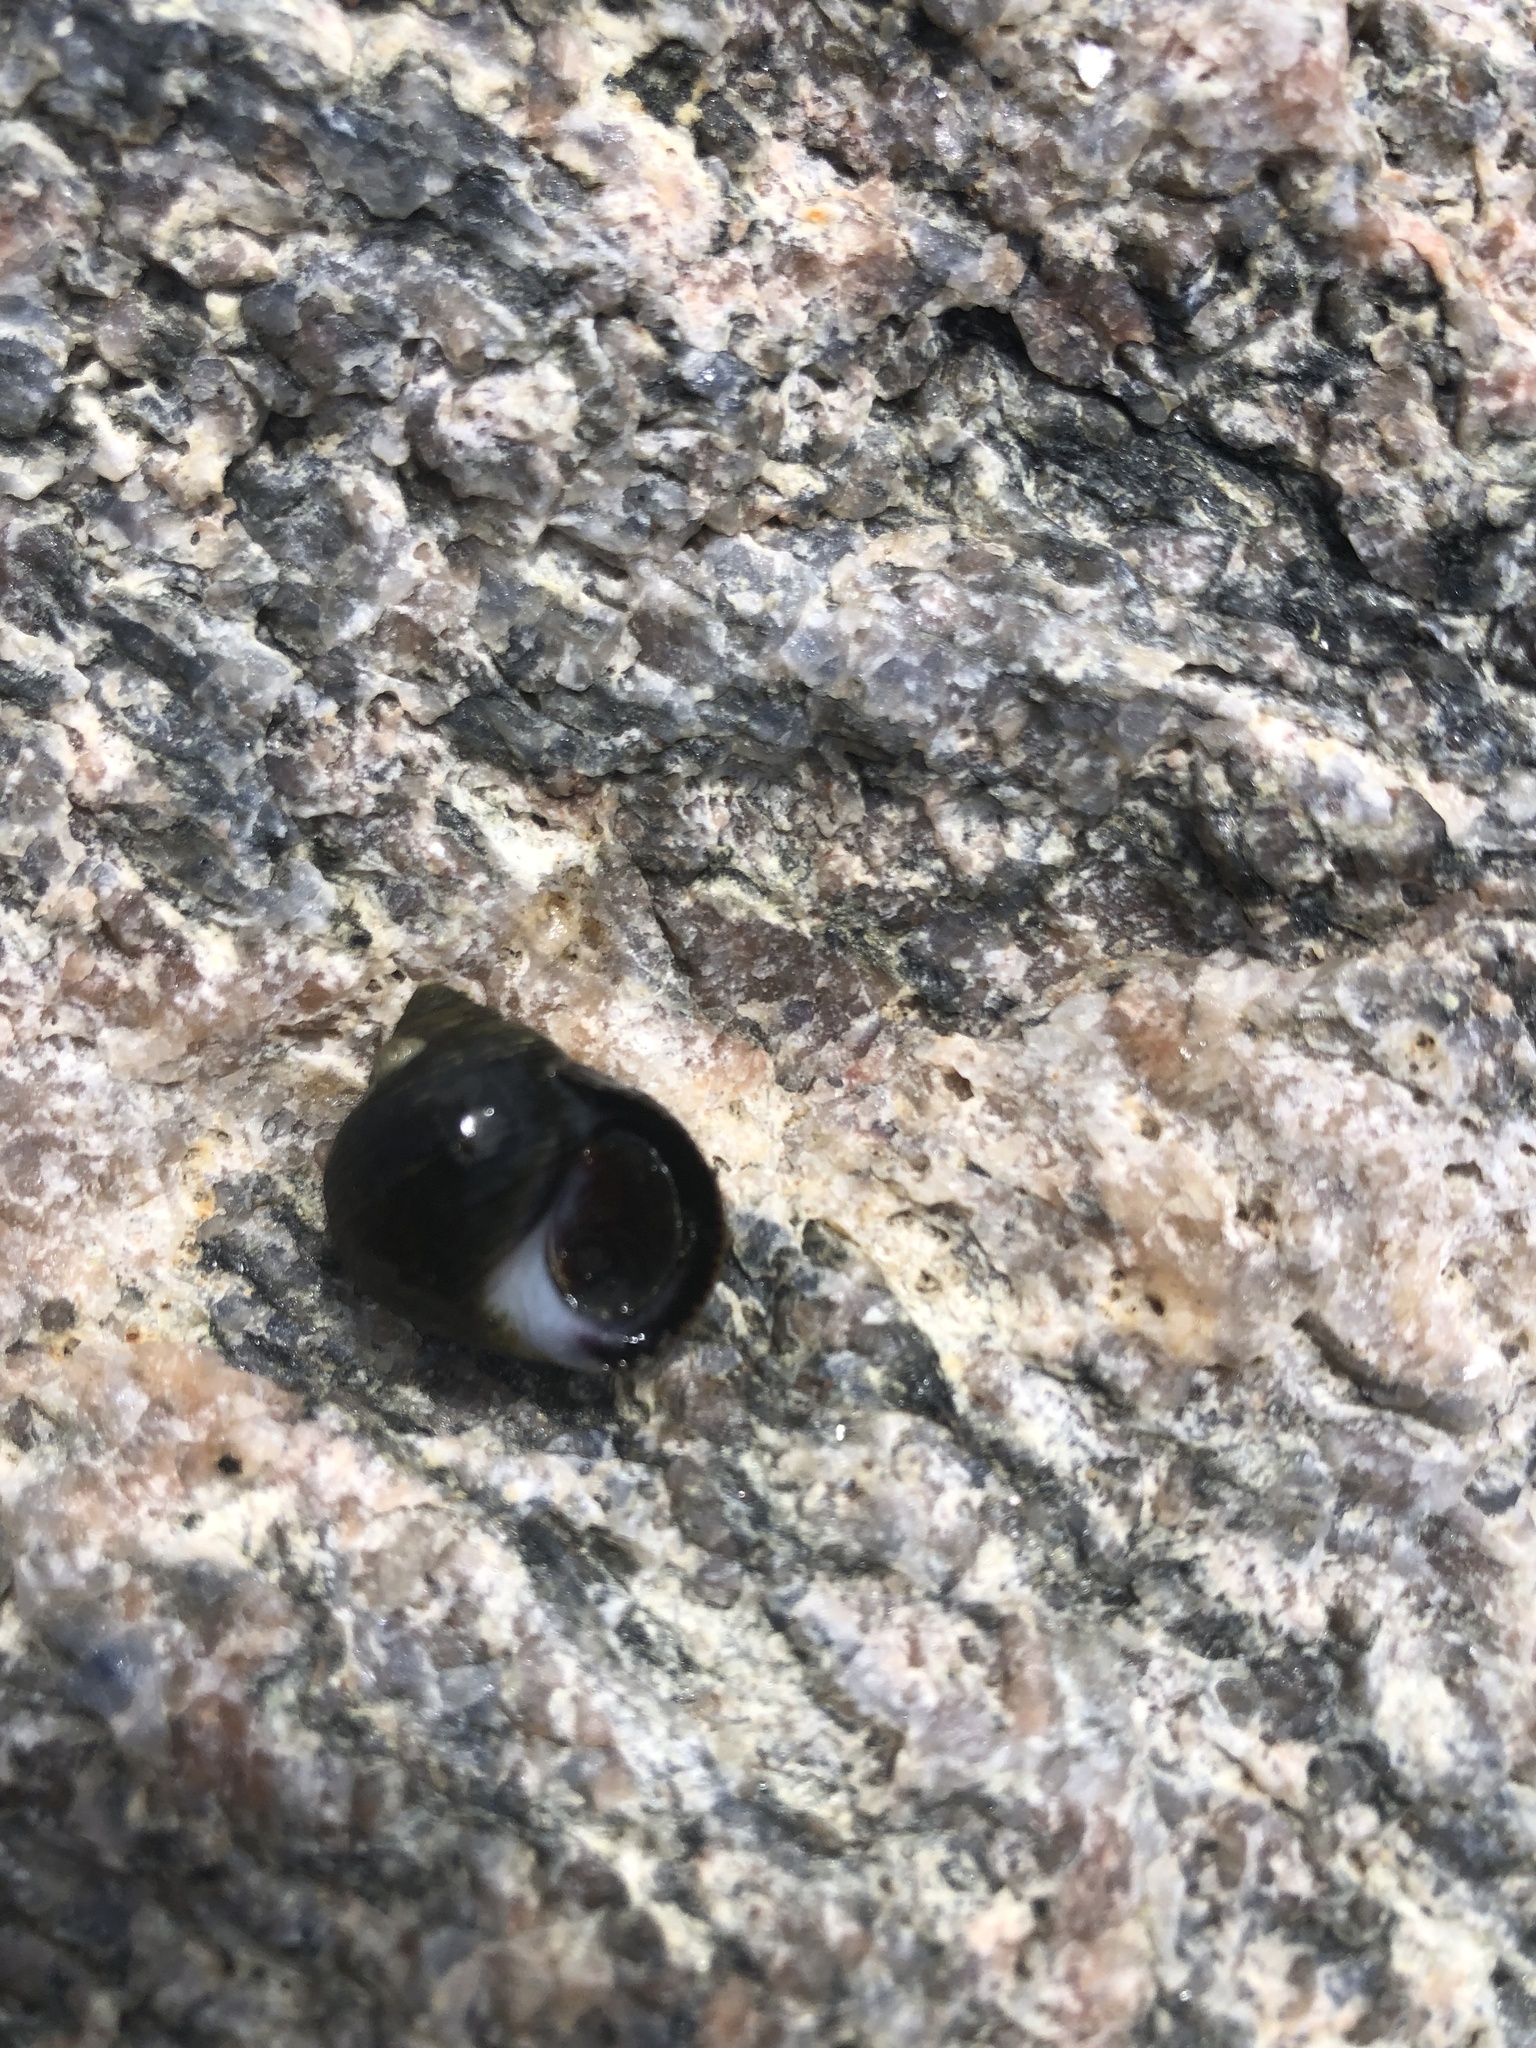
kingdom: Animalia
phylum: Mollusca
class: Gastropoda
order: Littorinimorpha
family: Littorinidae
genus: Littorina
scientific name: Littorina littorea
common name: Common periwinkle
